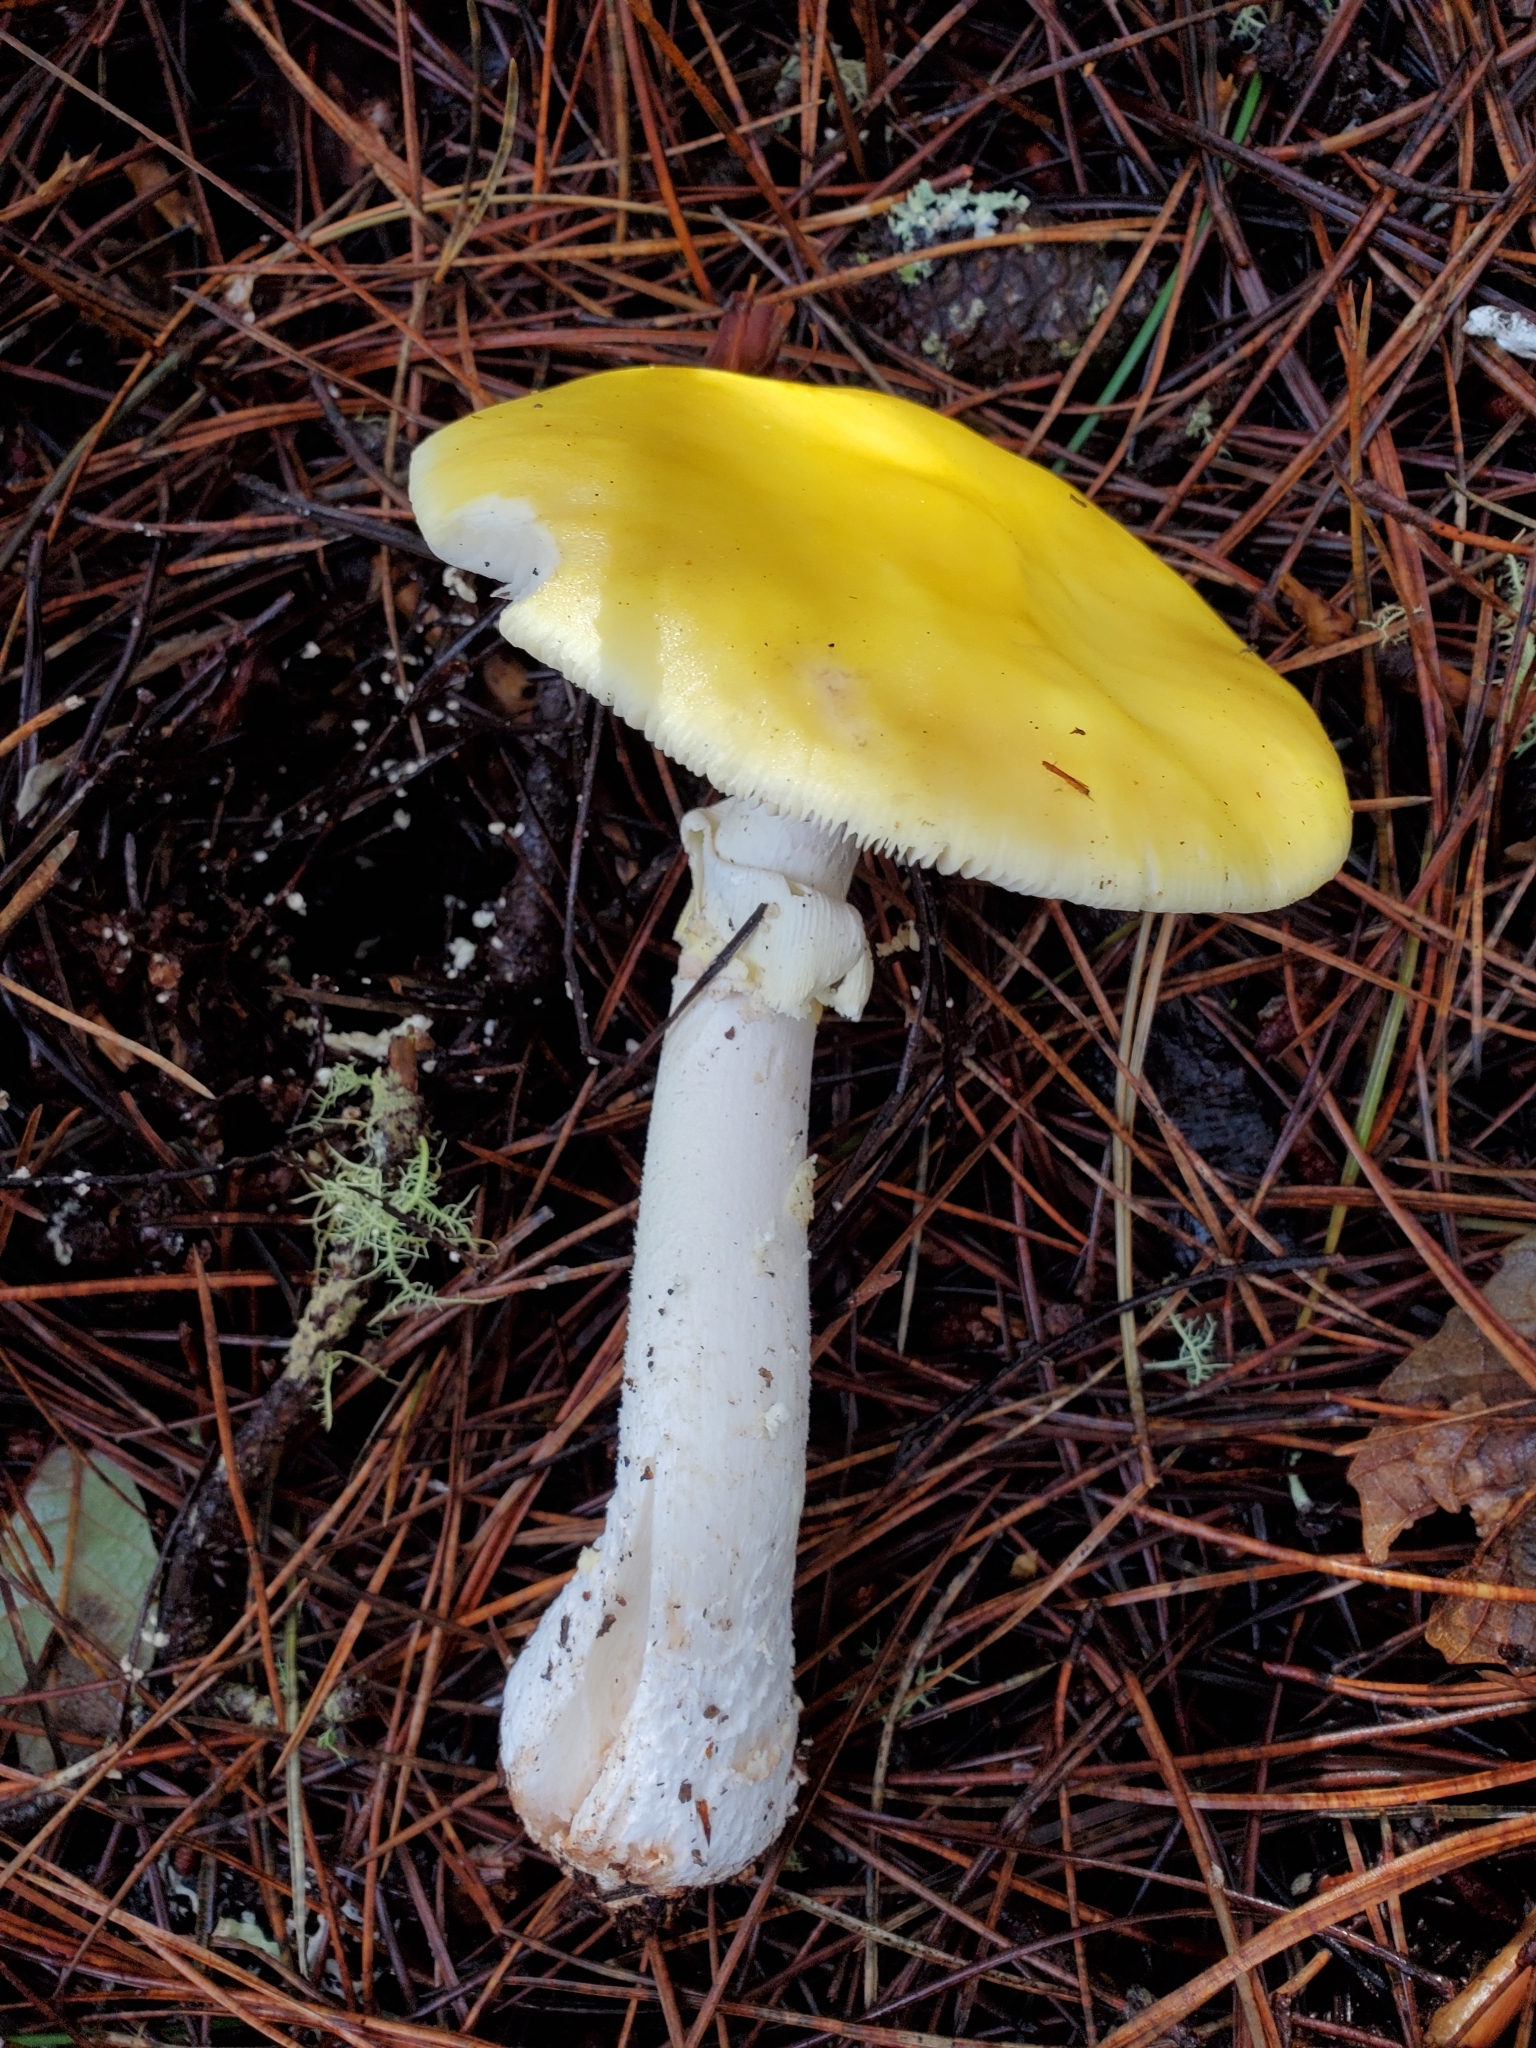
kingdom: Fungi
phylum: Basidiomycota
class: Agaricomycetes
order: Agaricales
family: Amanitaceae
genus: Amanita
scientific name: Amanita augusta
